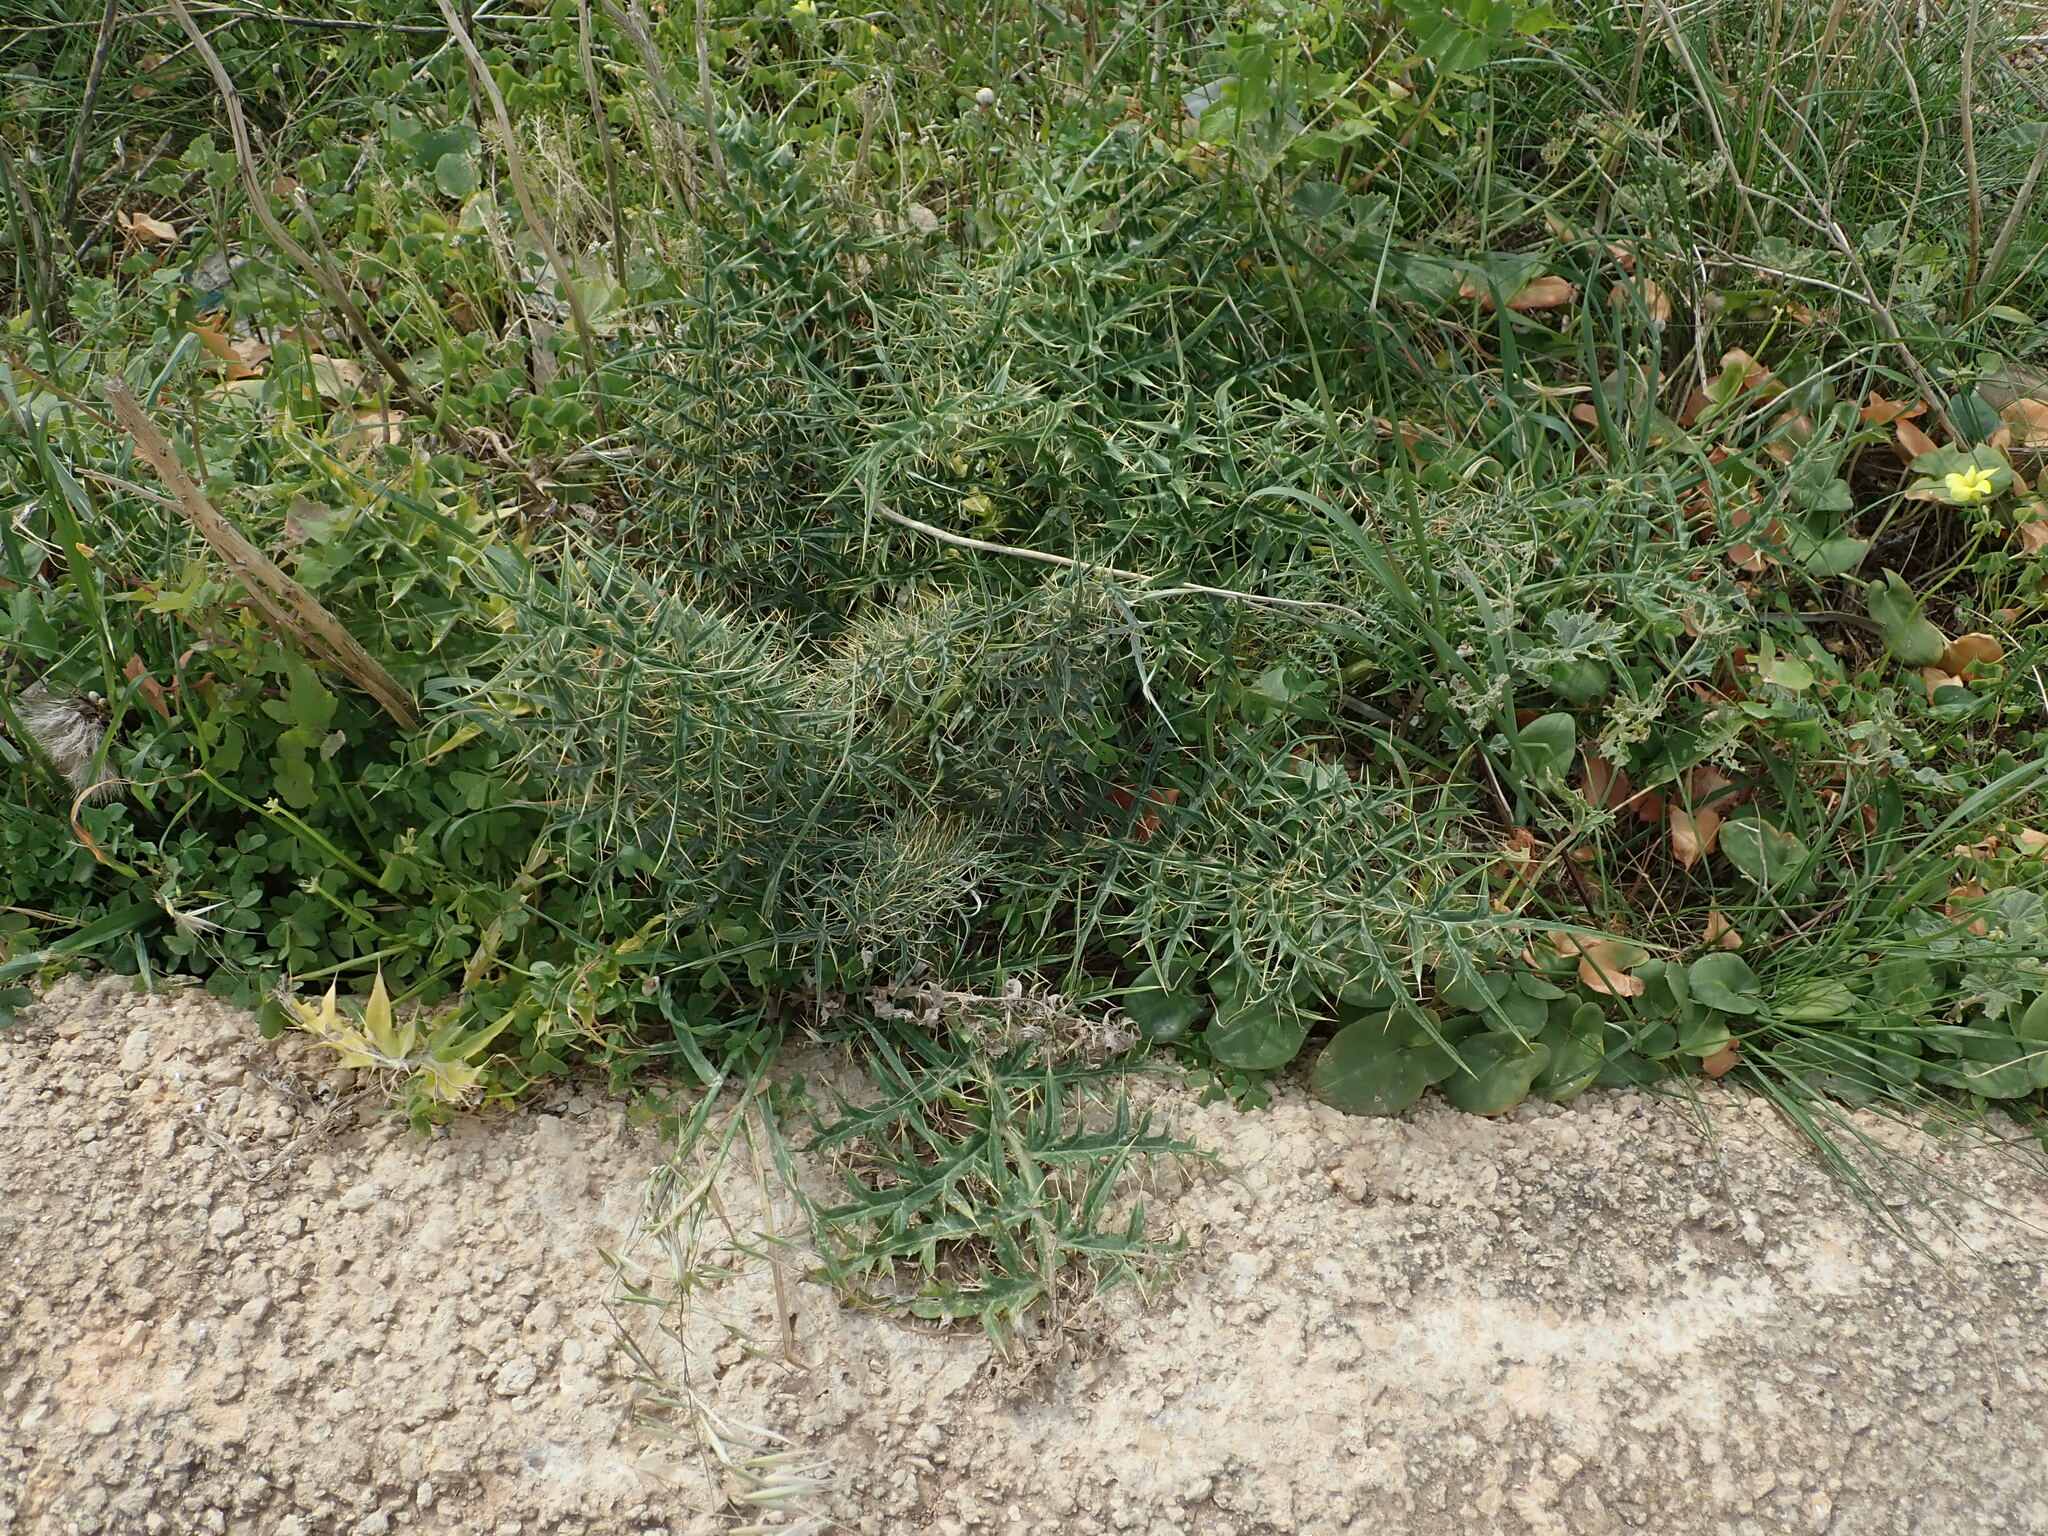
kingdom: Plantae
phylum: Tracheophyta
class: Magnoliopsida
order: Asterales
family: Asteraceae
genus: Cynara
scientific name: Cynara cardunculus
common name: Globe artichoke
